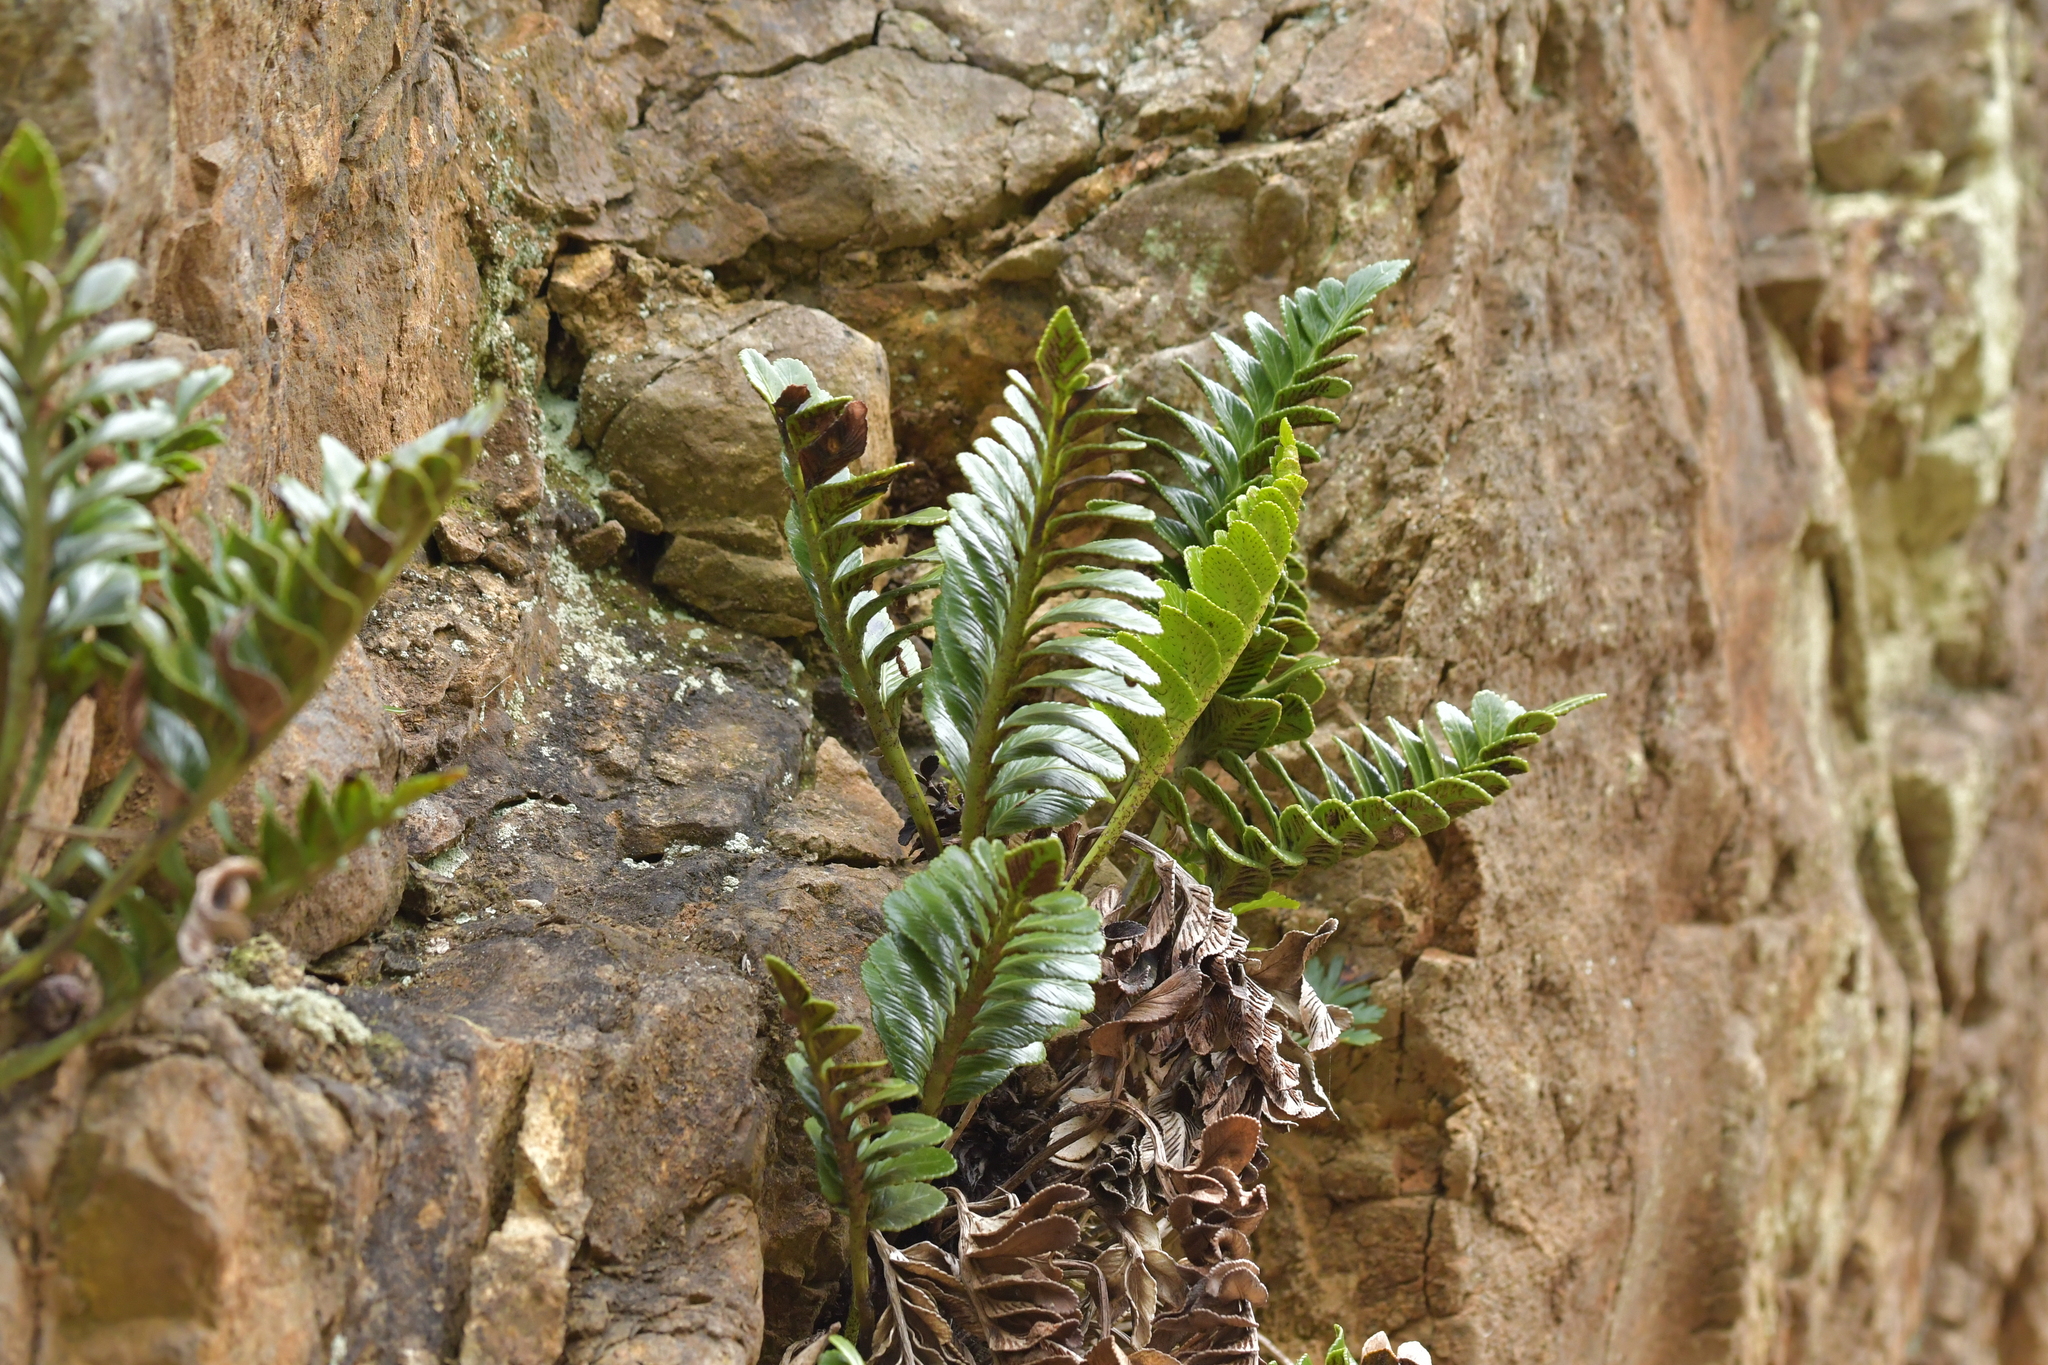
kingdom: Plantae
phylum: Tracheophyta
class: Polypodiopsida
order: Polypodiales
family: Aspleniaceae
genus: Asplenium
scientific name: Asplenium obtusatum
